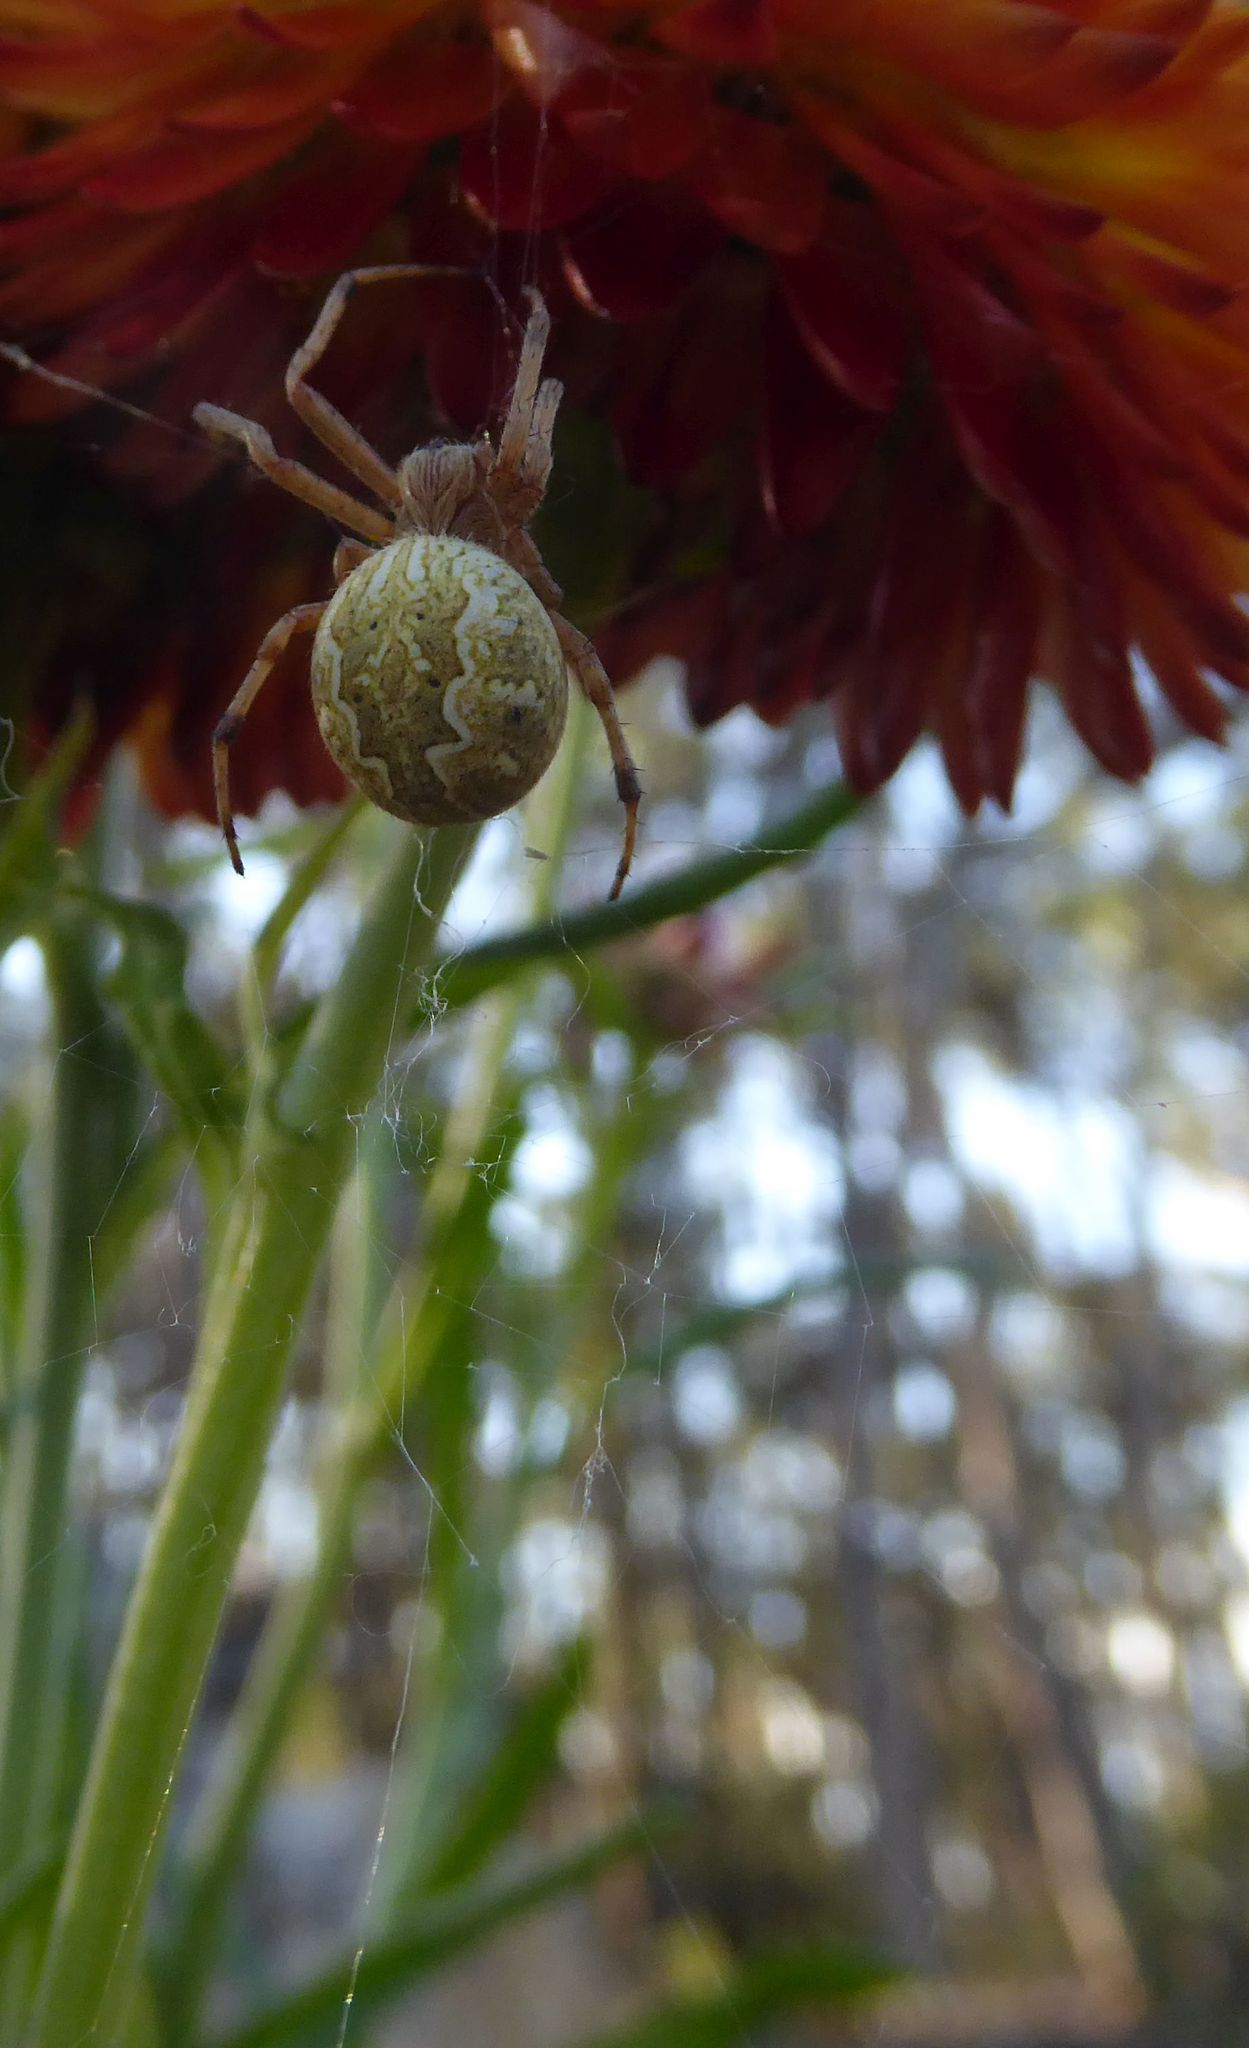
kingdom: Animalia
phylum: Arthropoda
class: Arachnida
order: Araneae
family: Araneidae
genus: Salsa
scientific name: Salsa fuliginata
